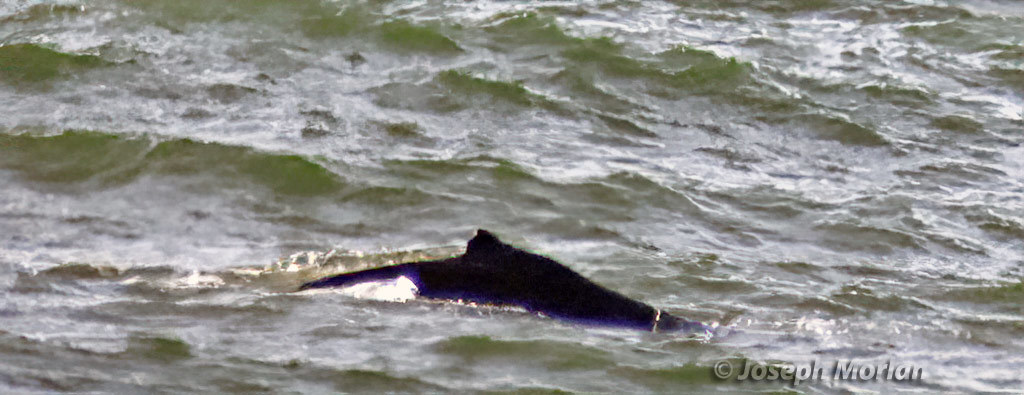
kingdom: Animalia
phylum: Chordata
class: Mammalia
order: Cetacea
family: Balaenopteridae
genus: Megaptera
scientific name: Megaptera novaeangliae
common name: Humpback whale
